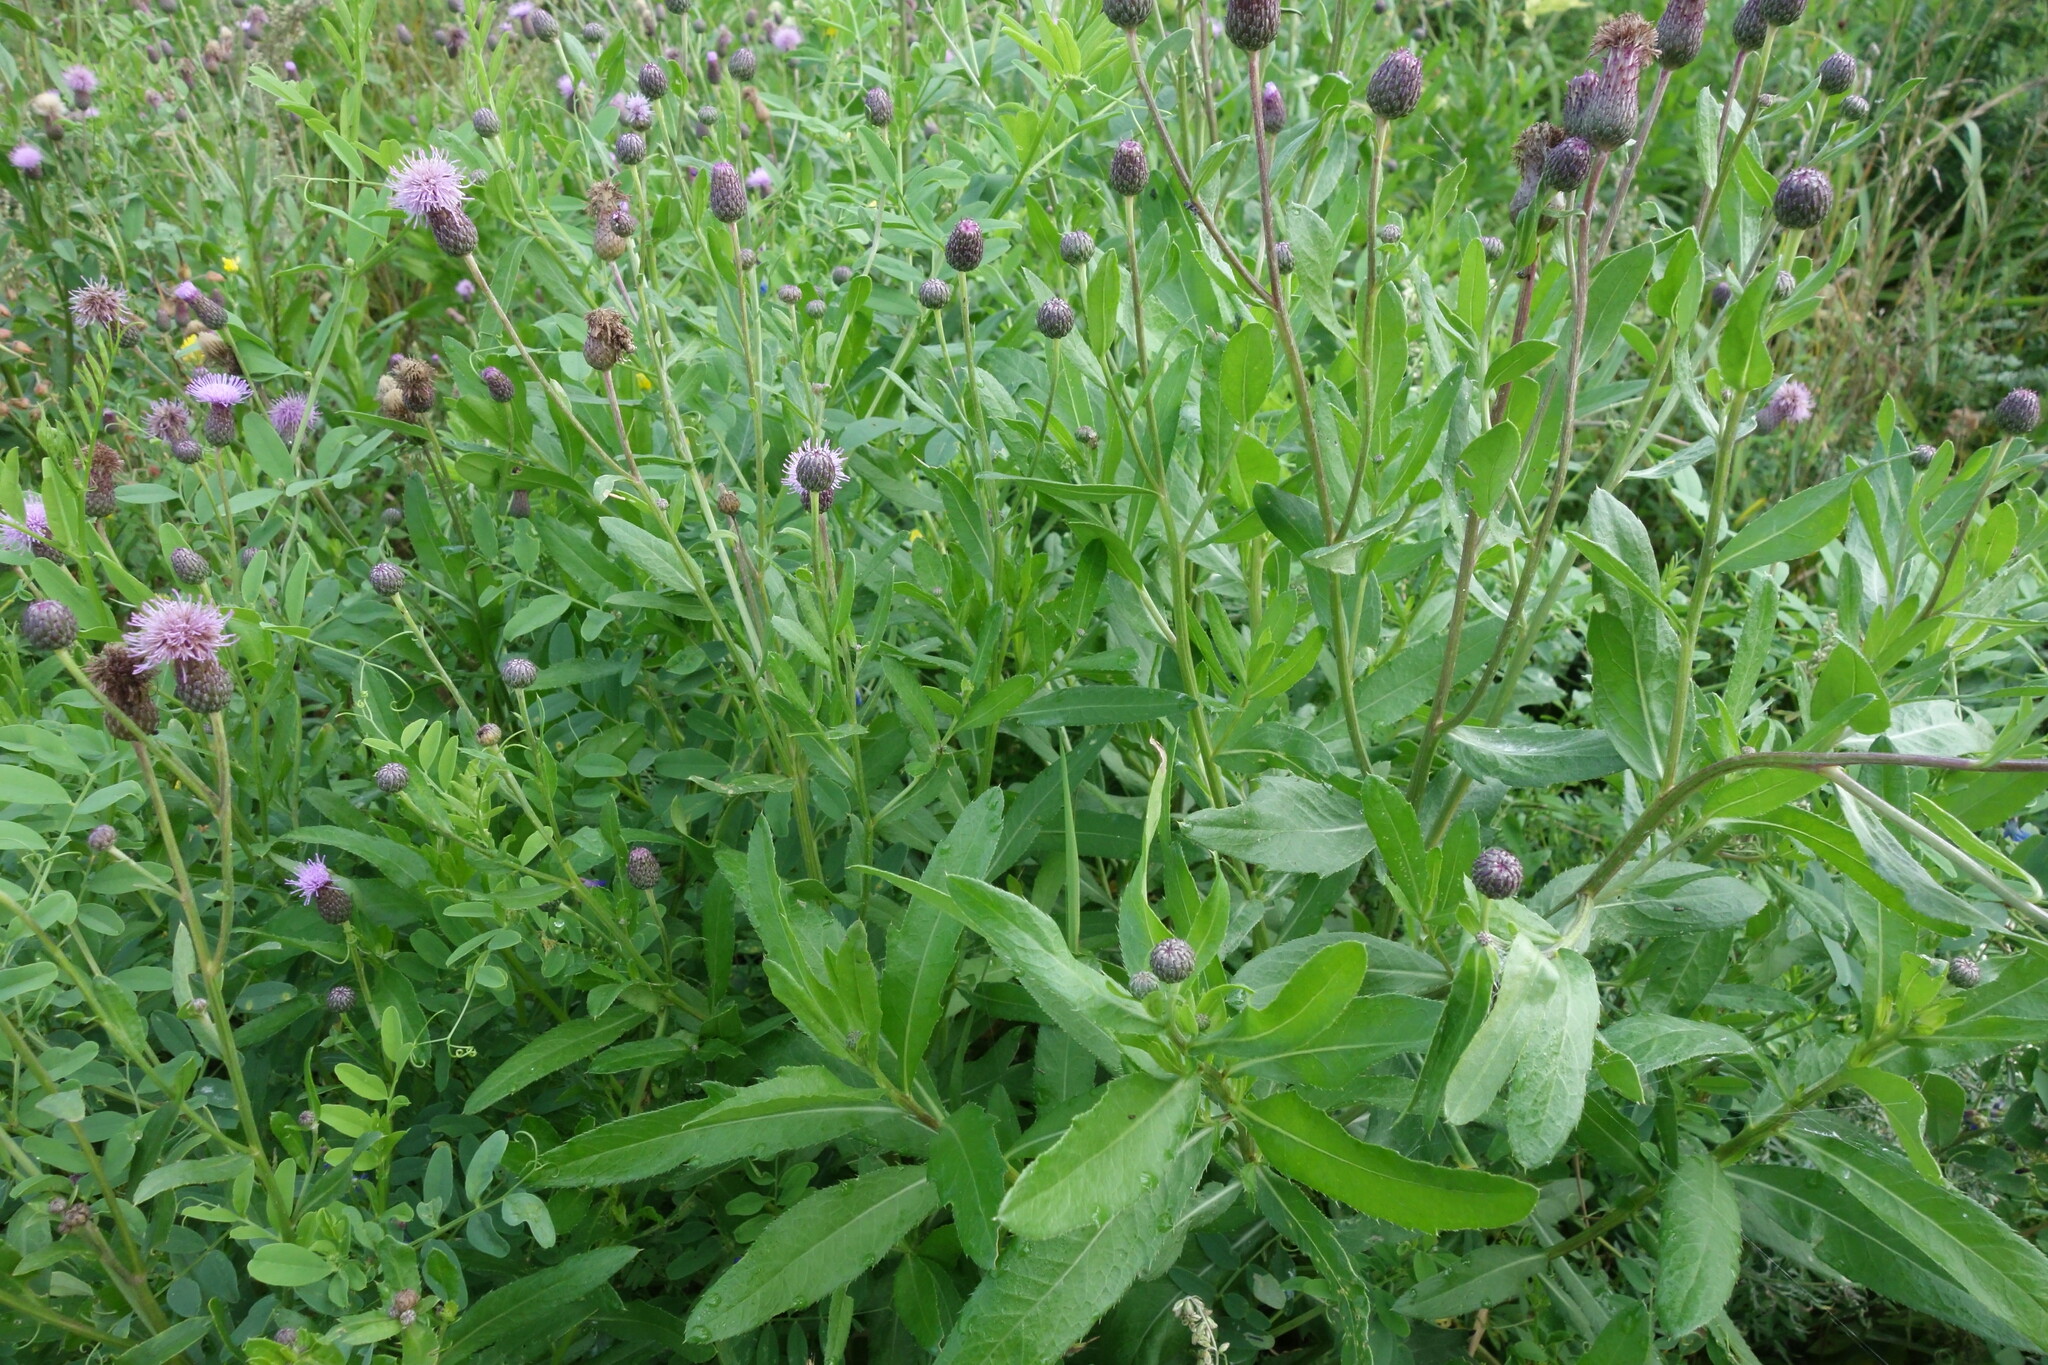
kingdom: Plantae
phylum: Tracheophyta
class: Magnoliopsida
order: Asterales
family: Asteraceae
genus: Cirsium
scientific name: Cirsium arvense
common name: Creeping thistle
